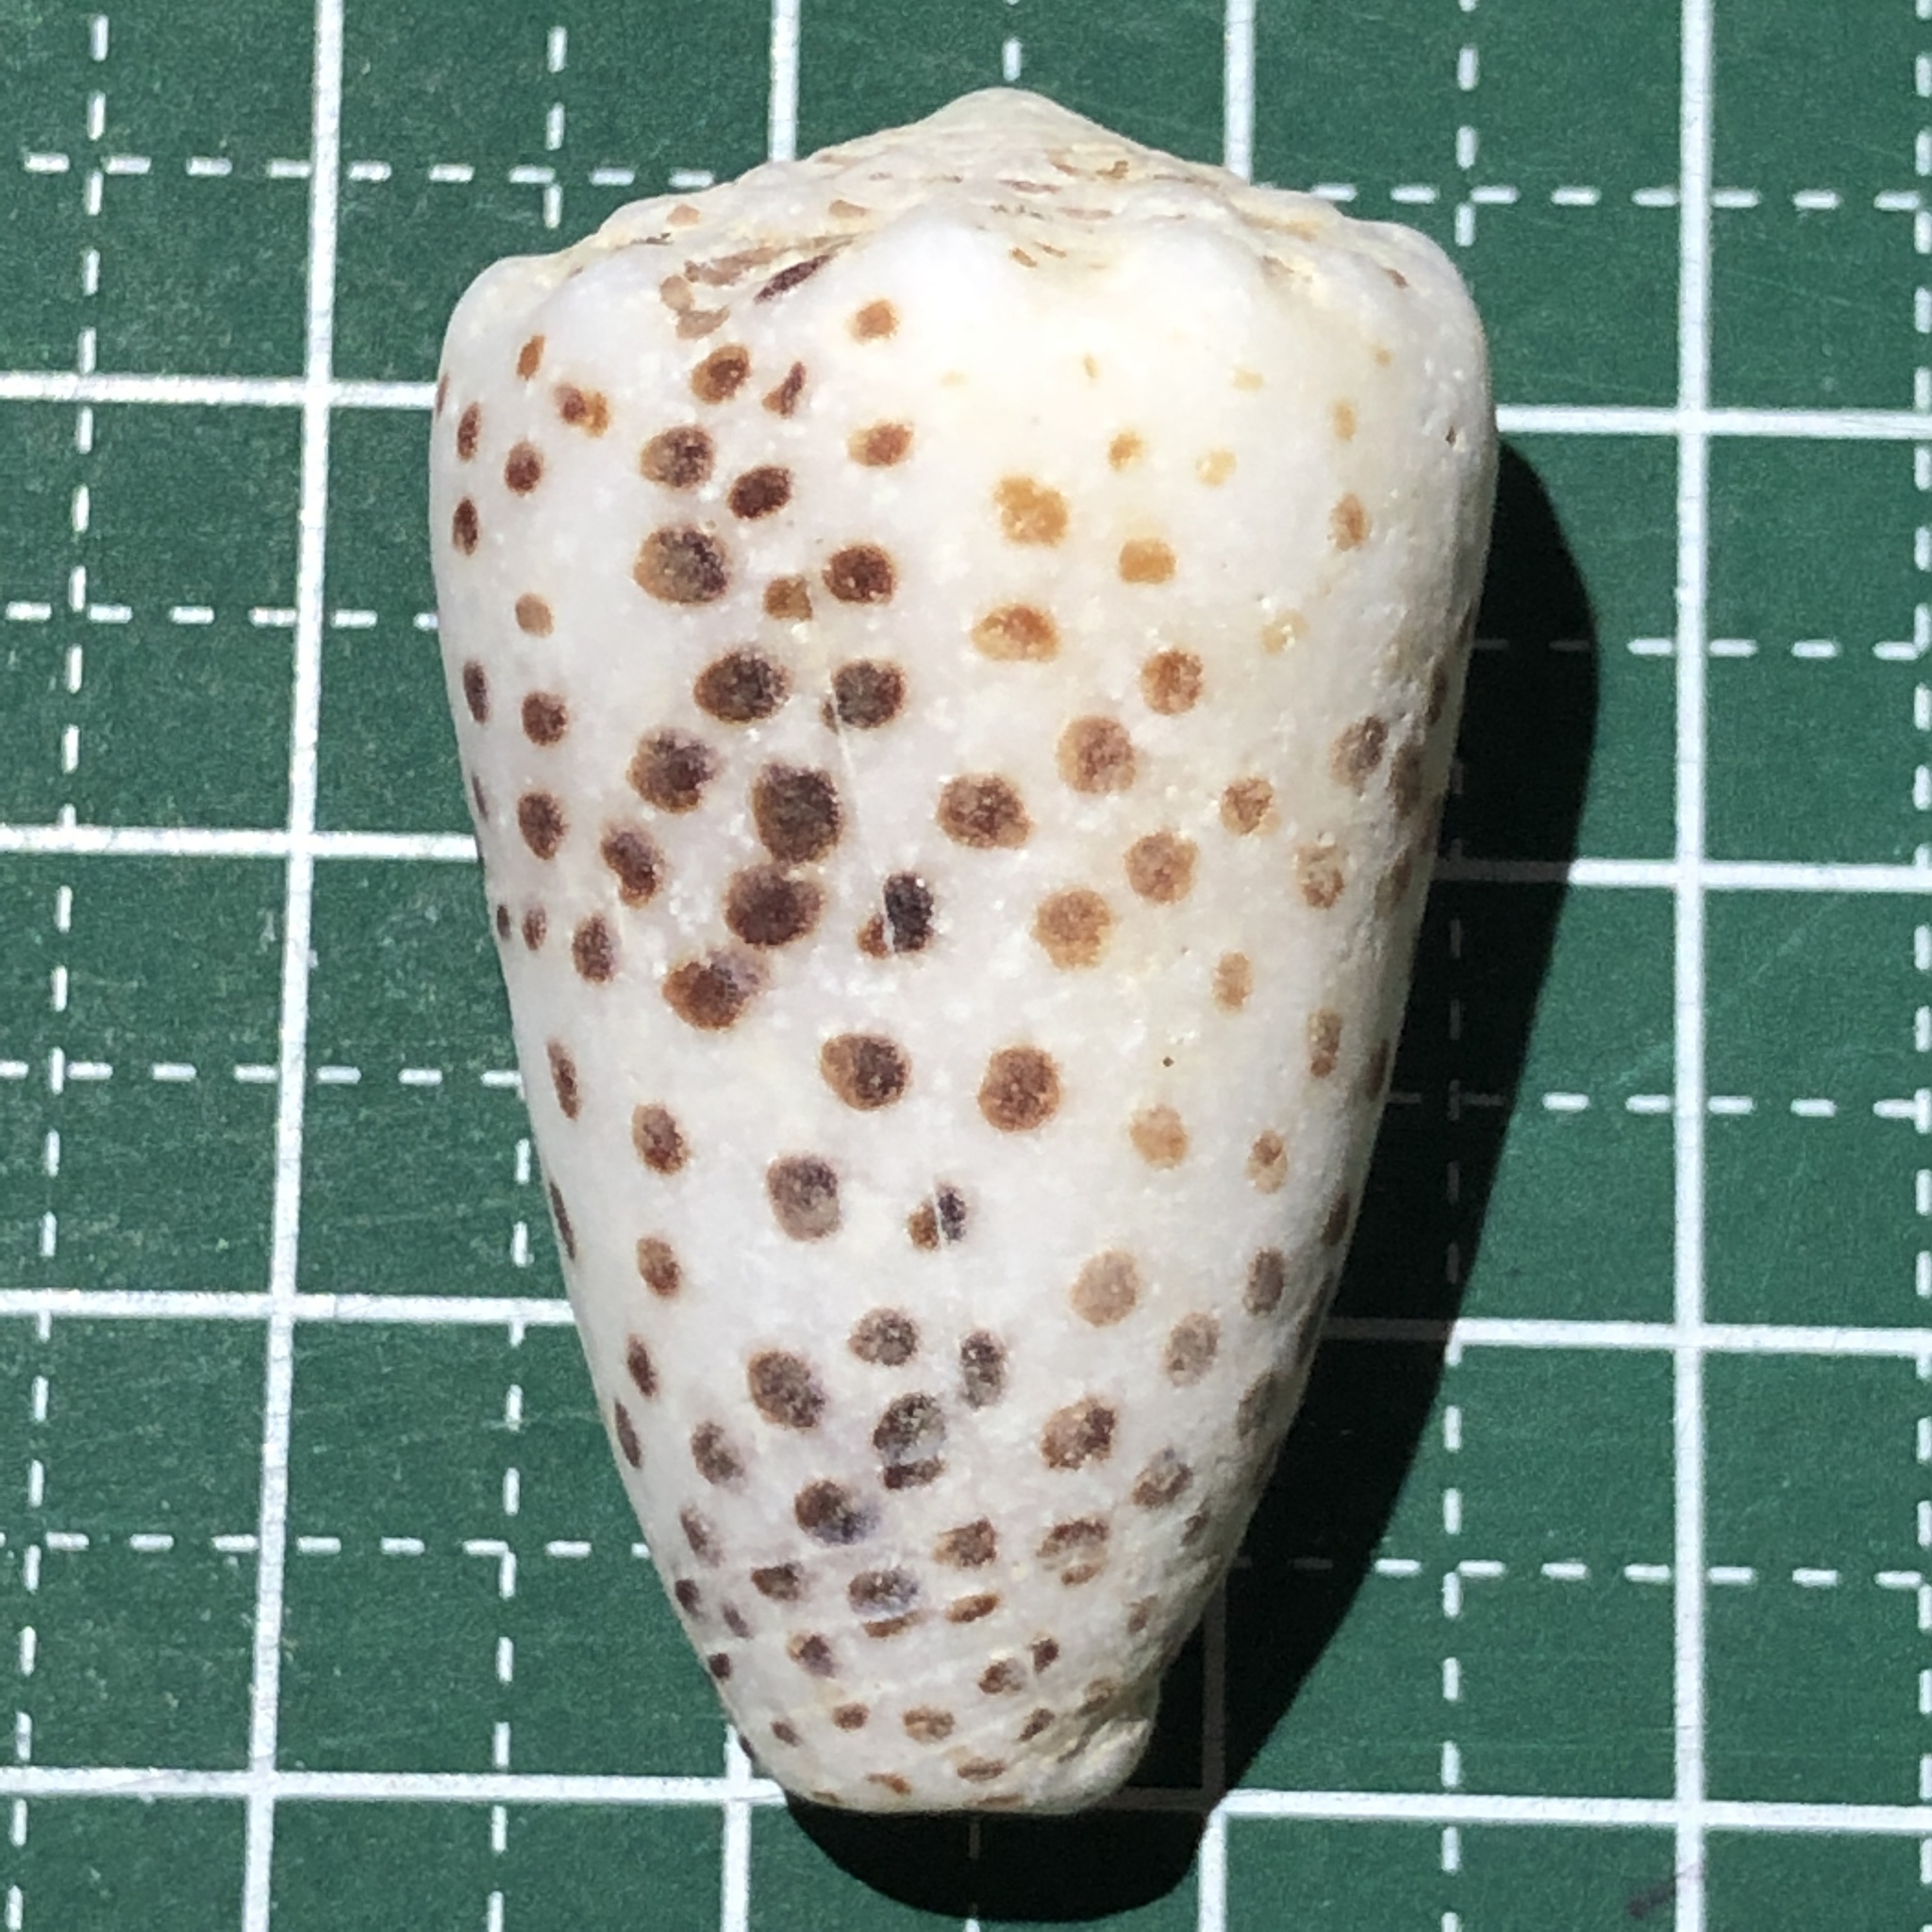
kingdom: Animalia
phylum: Mollusca
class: Gastropoda
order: Neogastropoda
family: Conidae
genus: Conus
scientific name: Conus pulicarius
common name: Flea-bite cone
